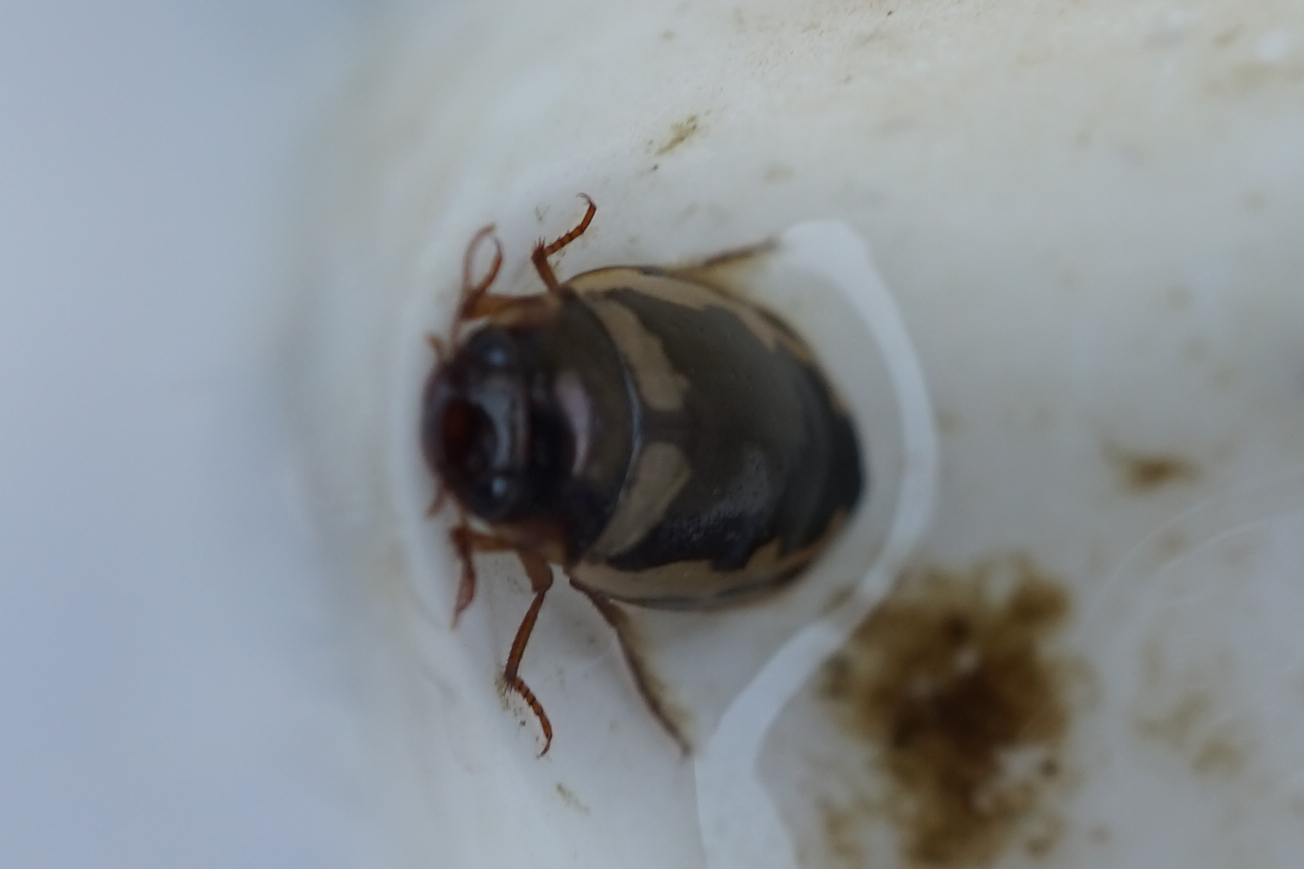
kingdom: Animalia
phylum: Arthropoda
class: Insecta
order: Coleoptera
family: Dytiscidae
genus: Platambus
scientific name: Platambus fimbriatus
